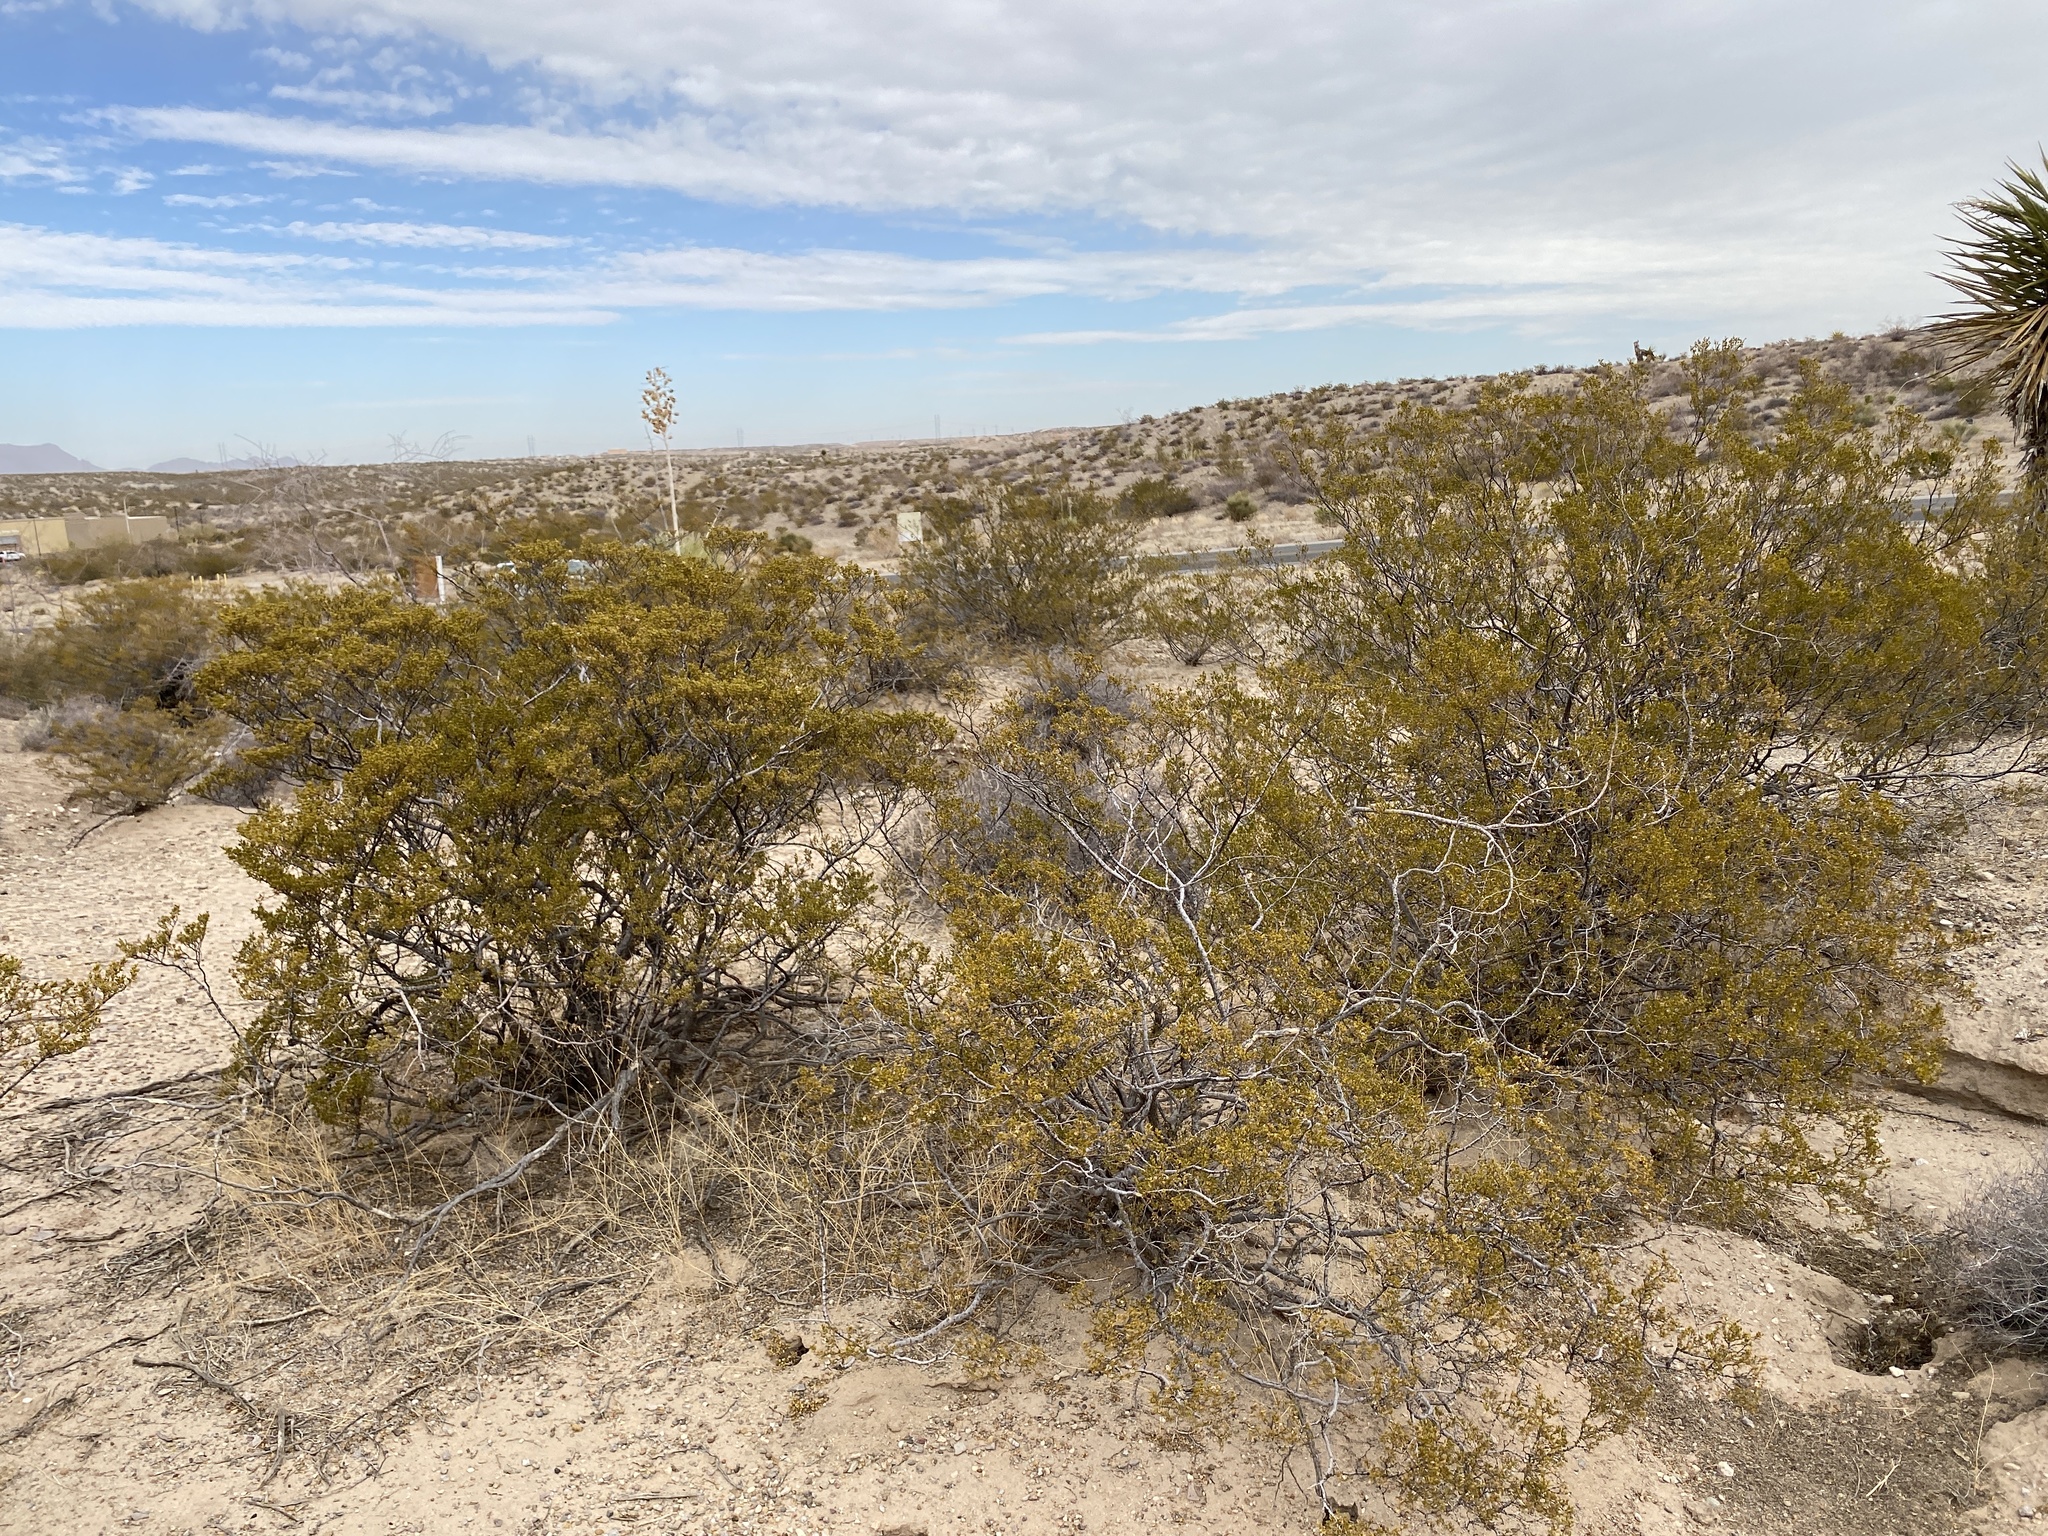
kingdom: Plantae
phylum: Tracheophyta
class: Magnoliopsida
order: Zygophyllales
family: Zygophyllaceae
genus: Larrea
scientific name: Larrea tridentata
